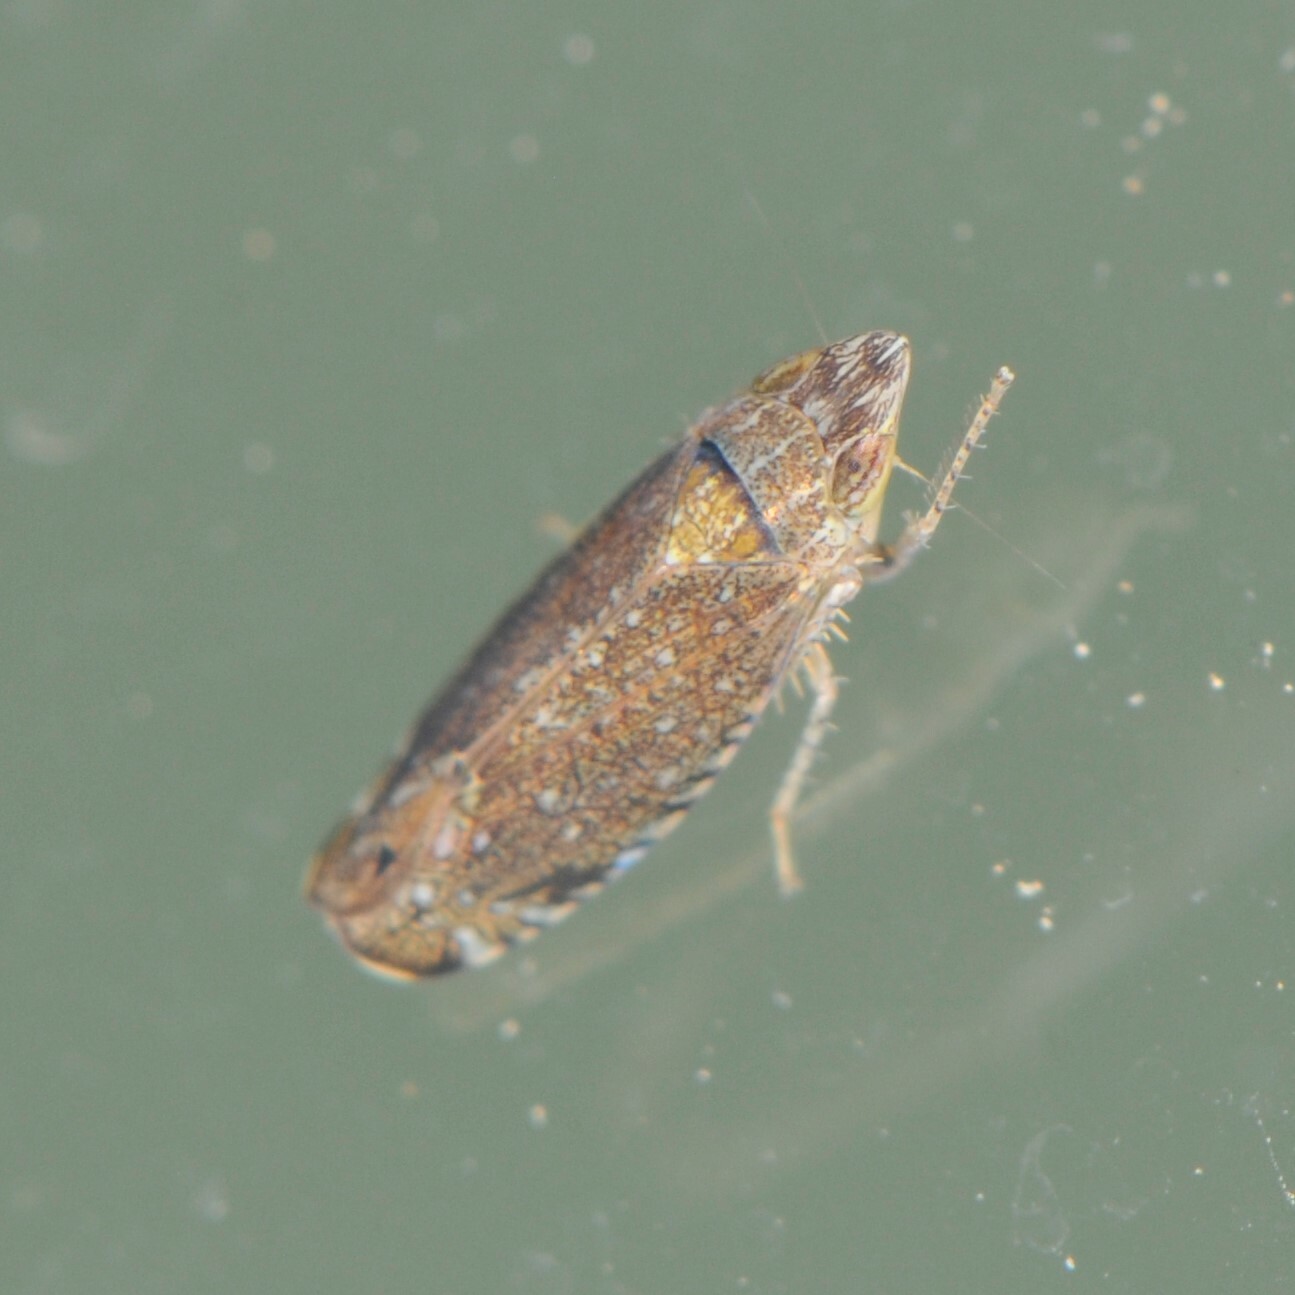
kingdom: Animalia
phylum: Arthropoda
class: Insecta
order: Hemiptera
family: Cicadellidae
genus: Scaphytopius
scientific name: Scaphytopius
